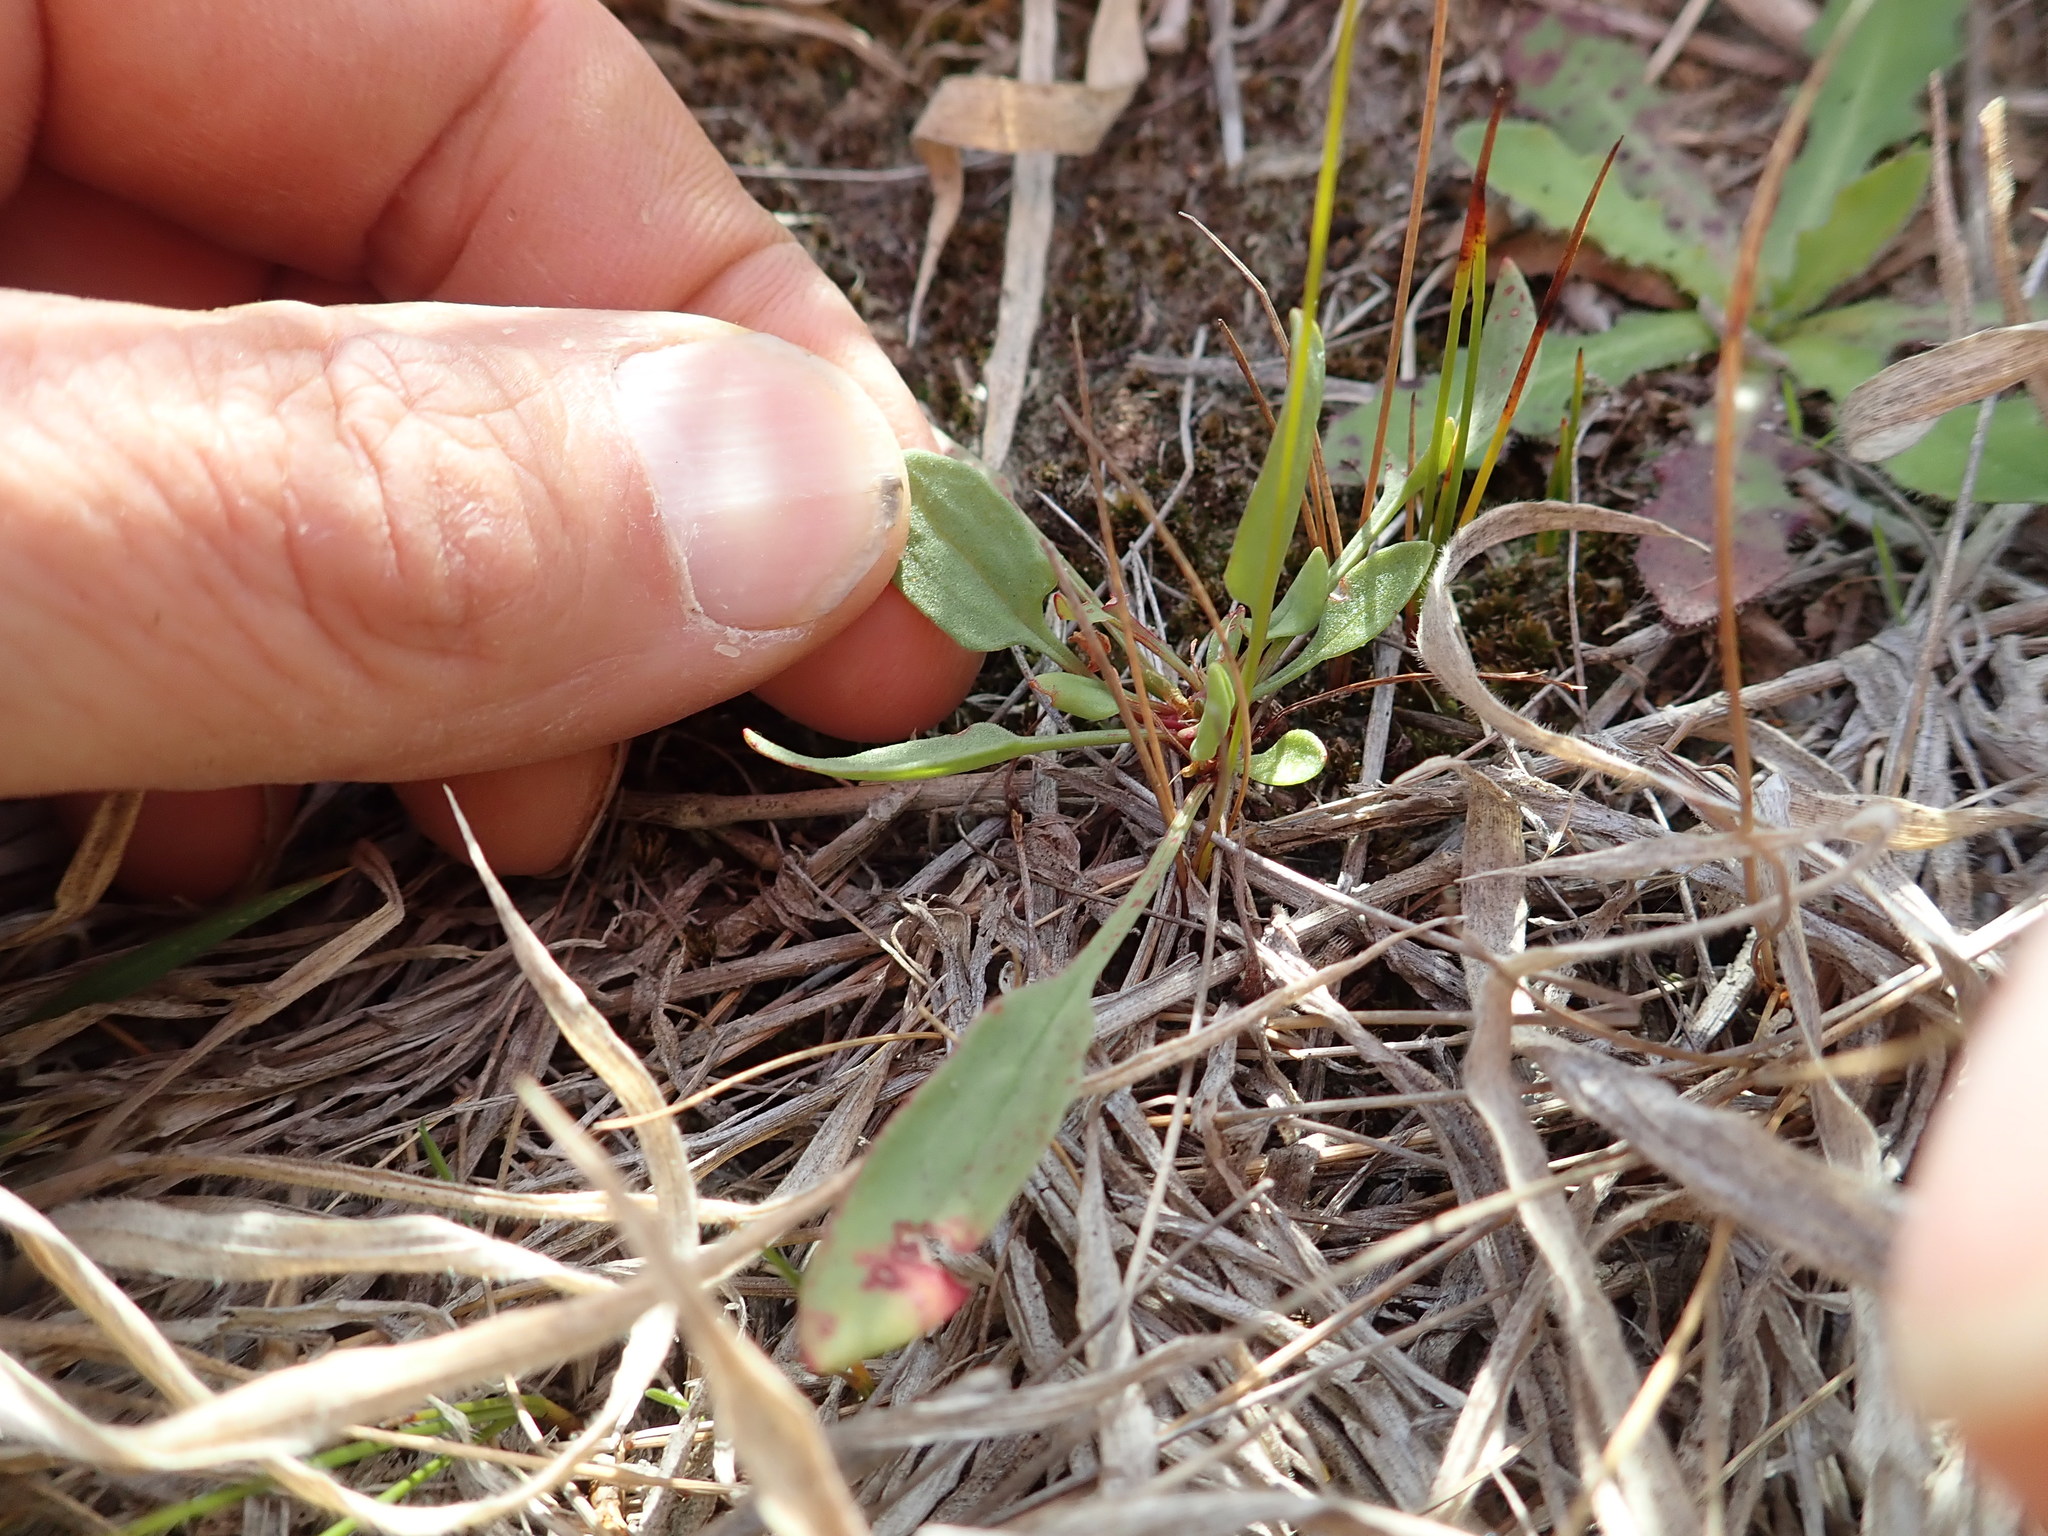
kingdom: Plantae
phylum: Tracheophyta
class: Magnoliopsida
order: Caryophyllales
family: Polygonaceae
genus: Rumex
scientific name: Rumex acetosella
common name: Common sheep sorrel
